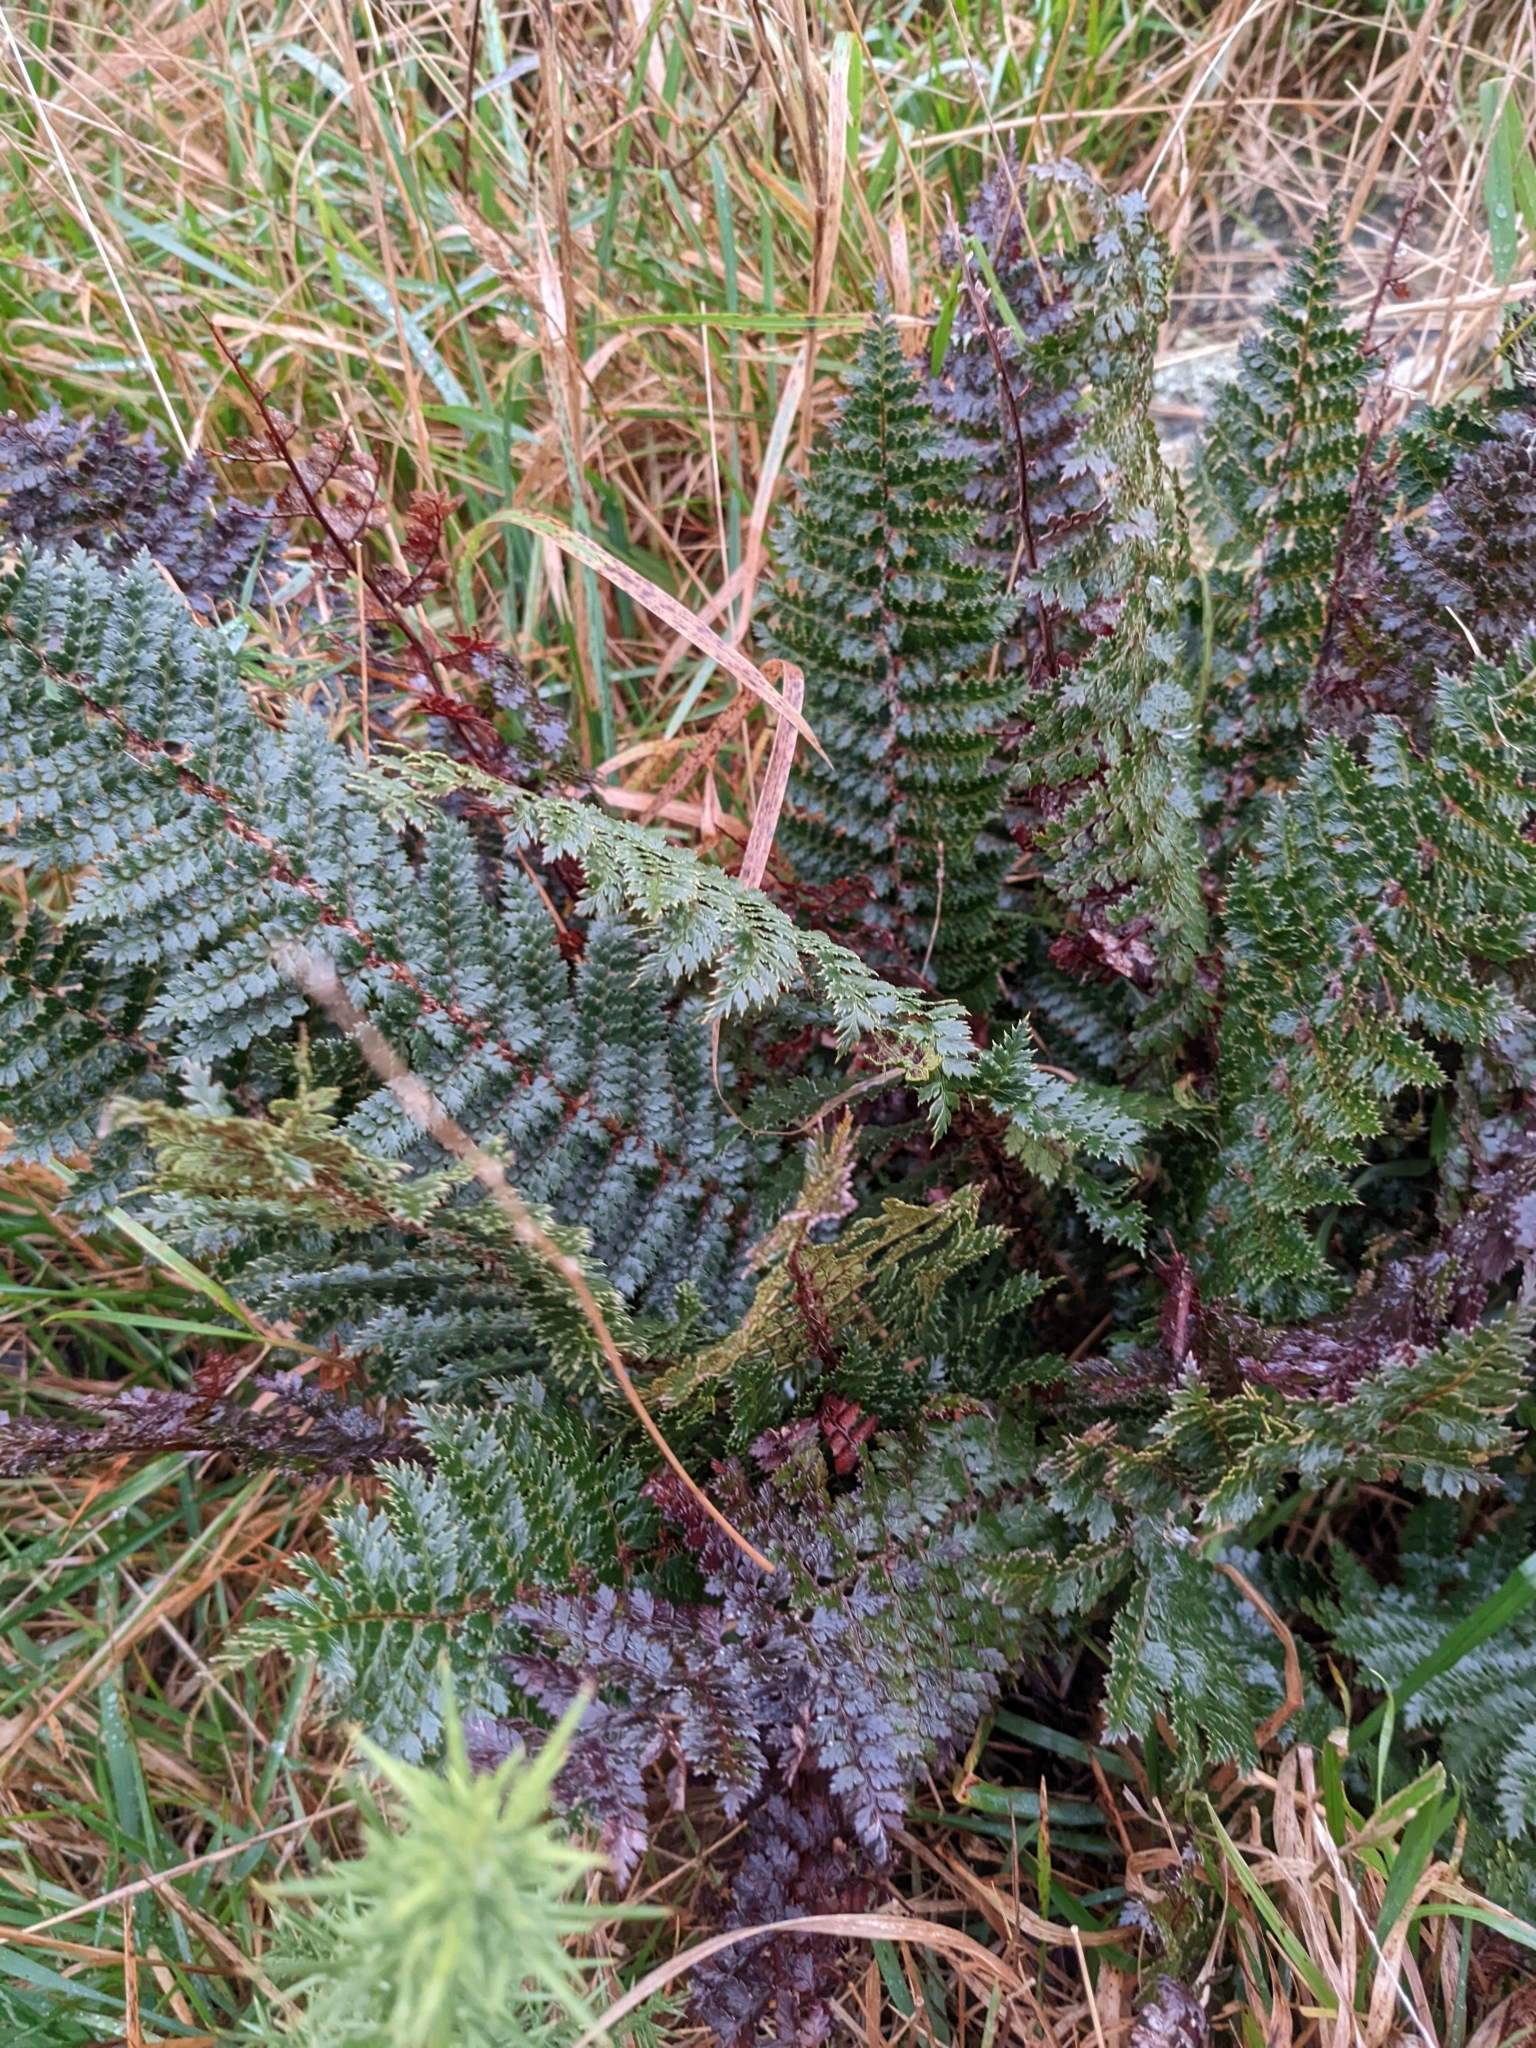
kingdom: Plantae
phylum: Tracheophyta
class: Polypodiopsida
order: Polypodiales
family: Dryopteridaceae
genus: Polystichum
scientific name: Polystichum vestitum
